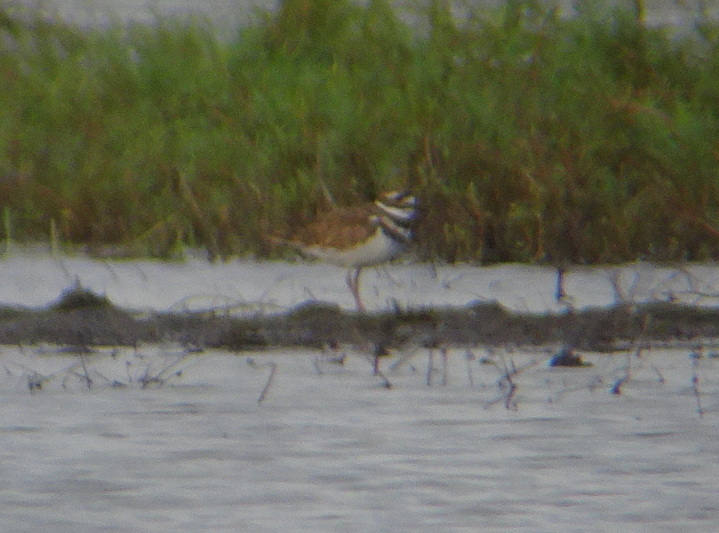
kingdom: Animalia
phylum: Chordata
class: Aves
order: Charadriiformes
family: Charadriidae
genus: Charadrius
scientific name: Charadrius vociferus
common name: Killdeer
